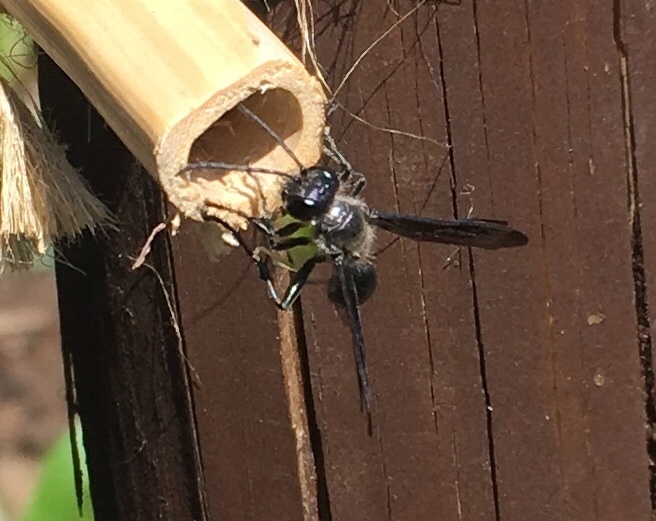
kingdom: Animalia
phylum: Arthropoda
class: Insecta
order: Hymenoptera
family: Sphecidae
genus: Isodontia
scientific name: Isodontia mexicana
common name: Mud dauber
